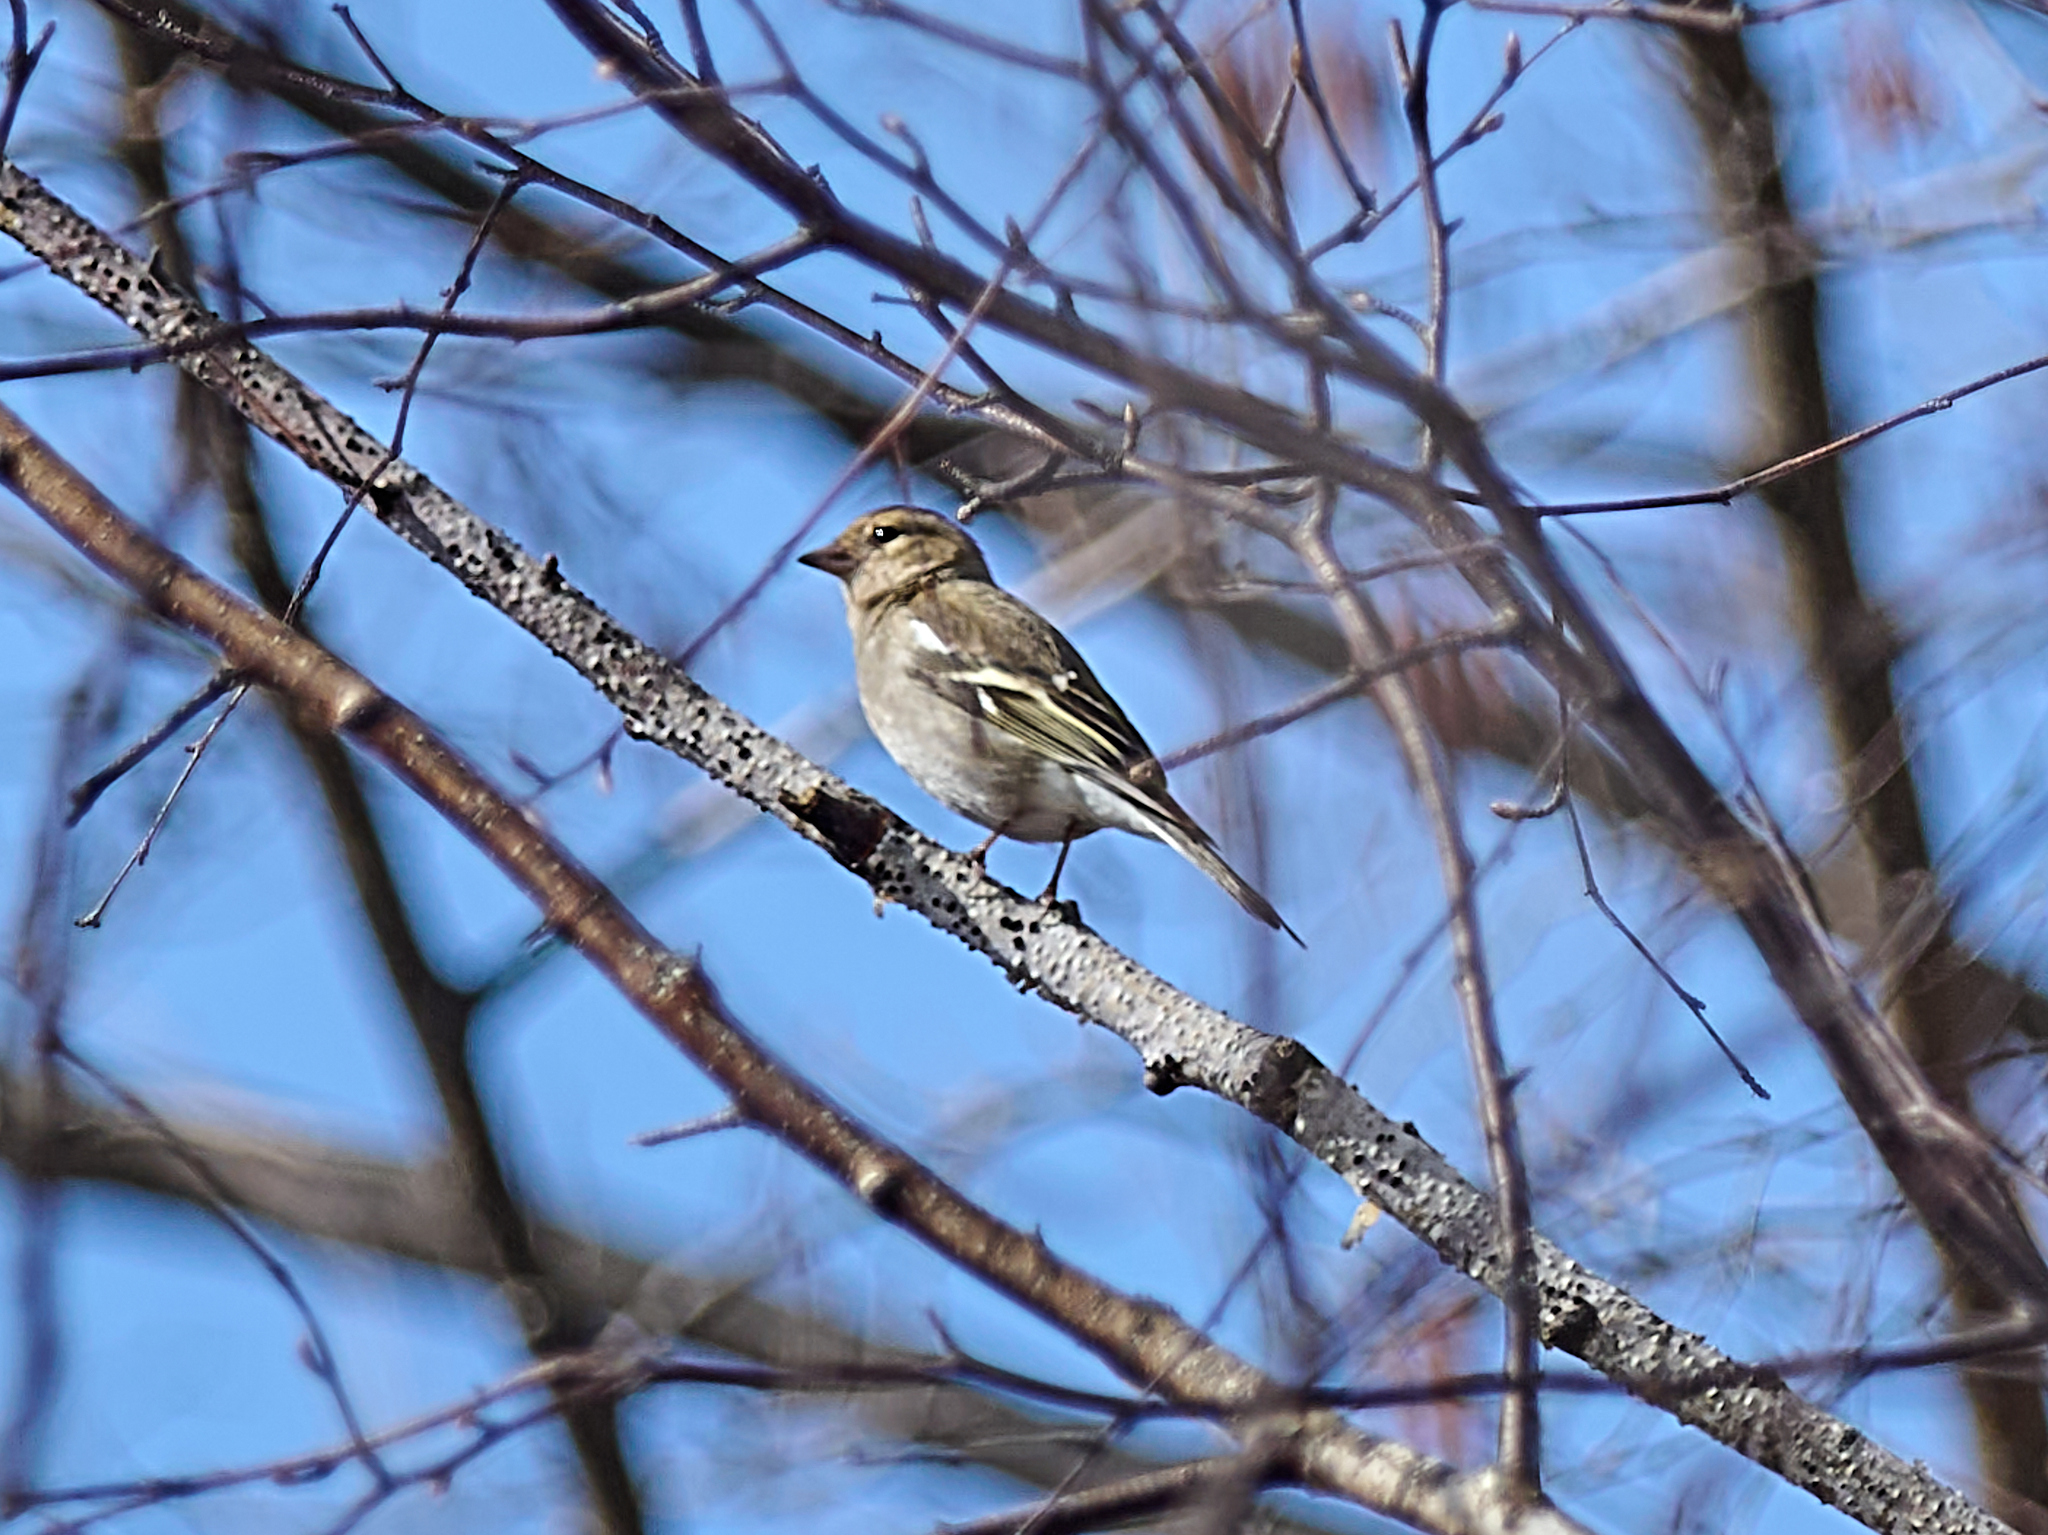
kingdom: Animalia
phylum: Chordata
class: Aves
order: Passeriformes
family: Fringillidae
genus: Fringilla
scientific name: Fringilla coelebs
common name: Common chaffinch
